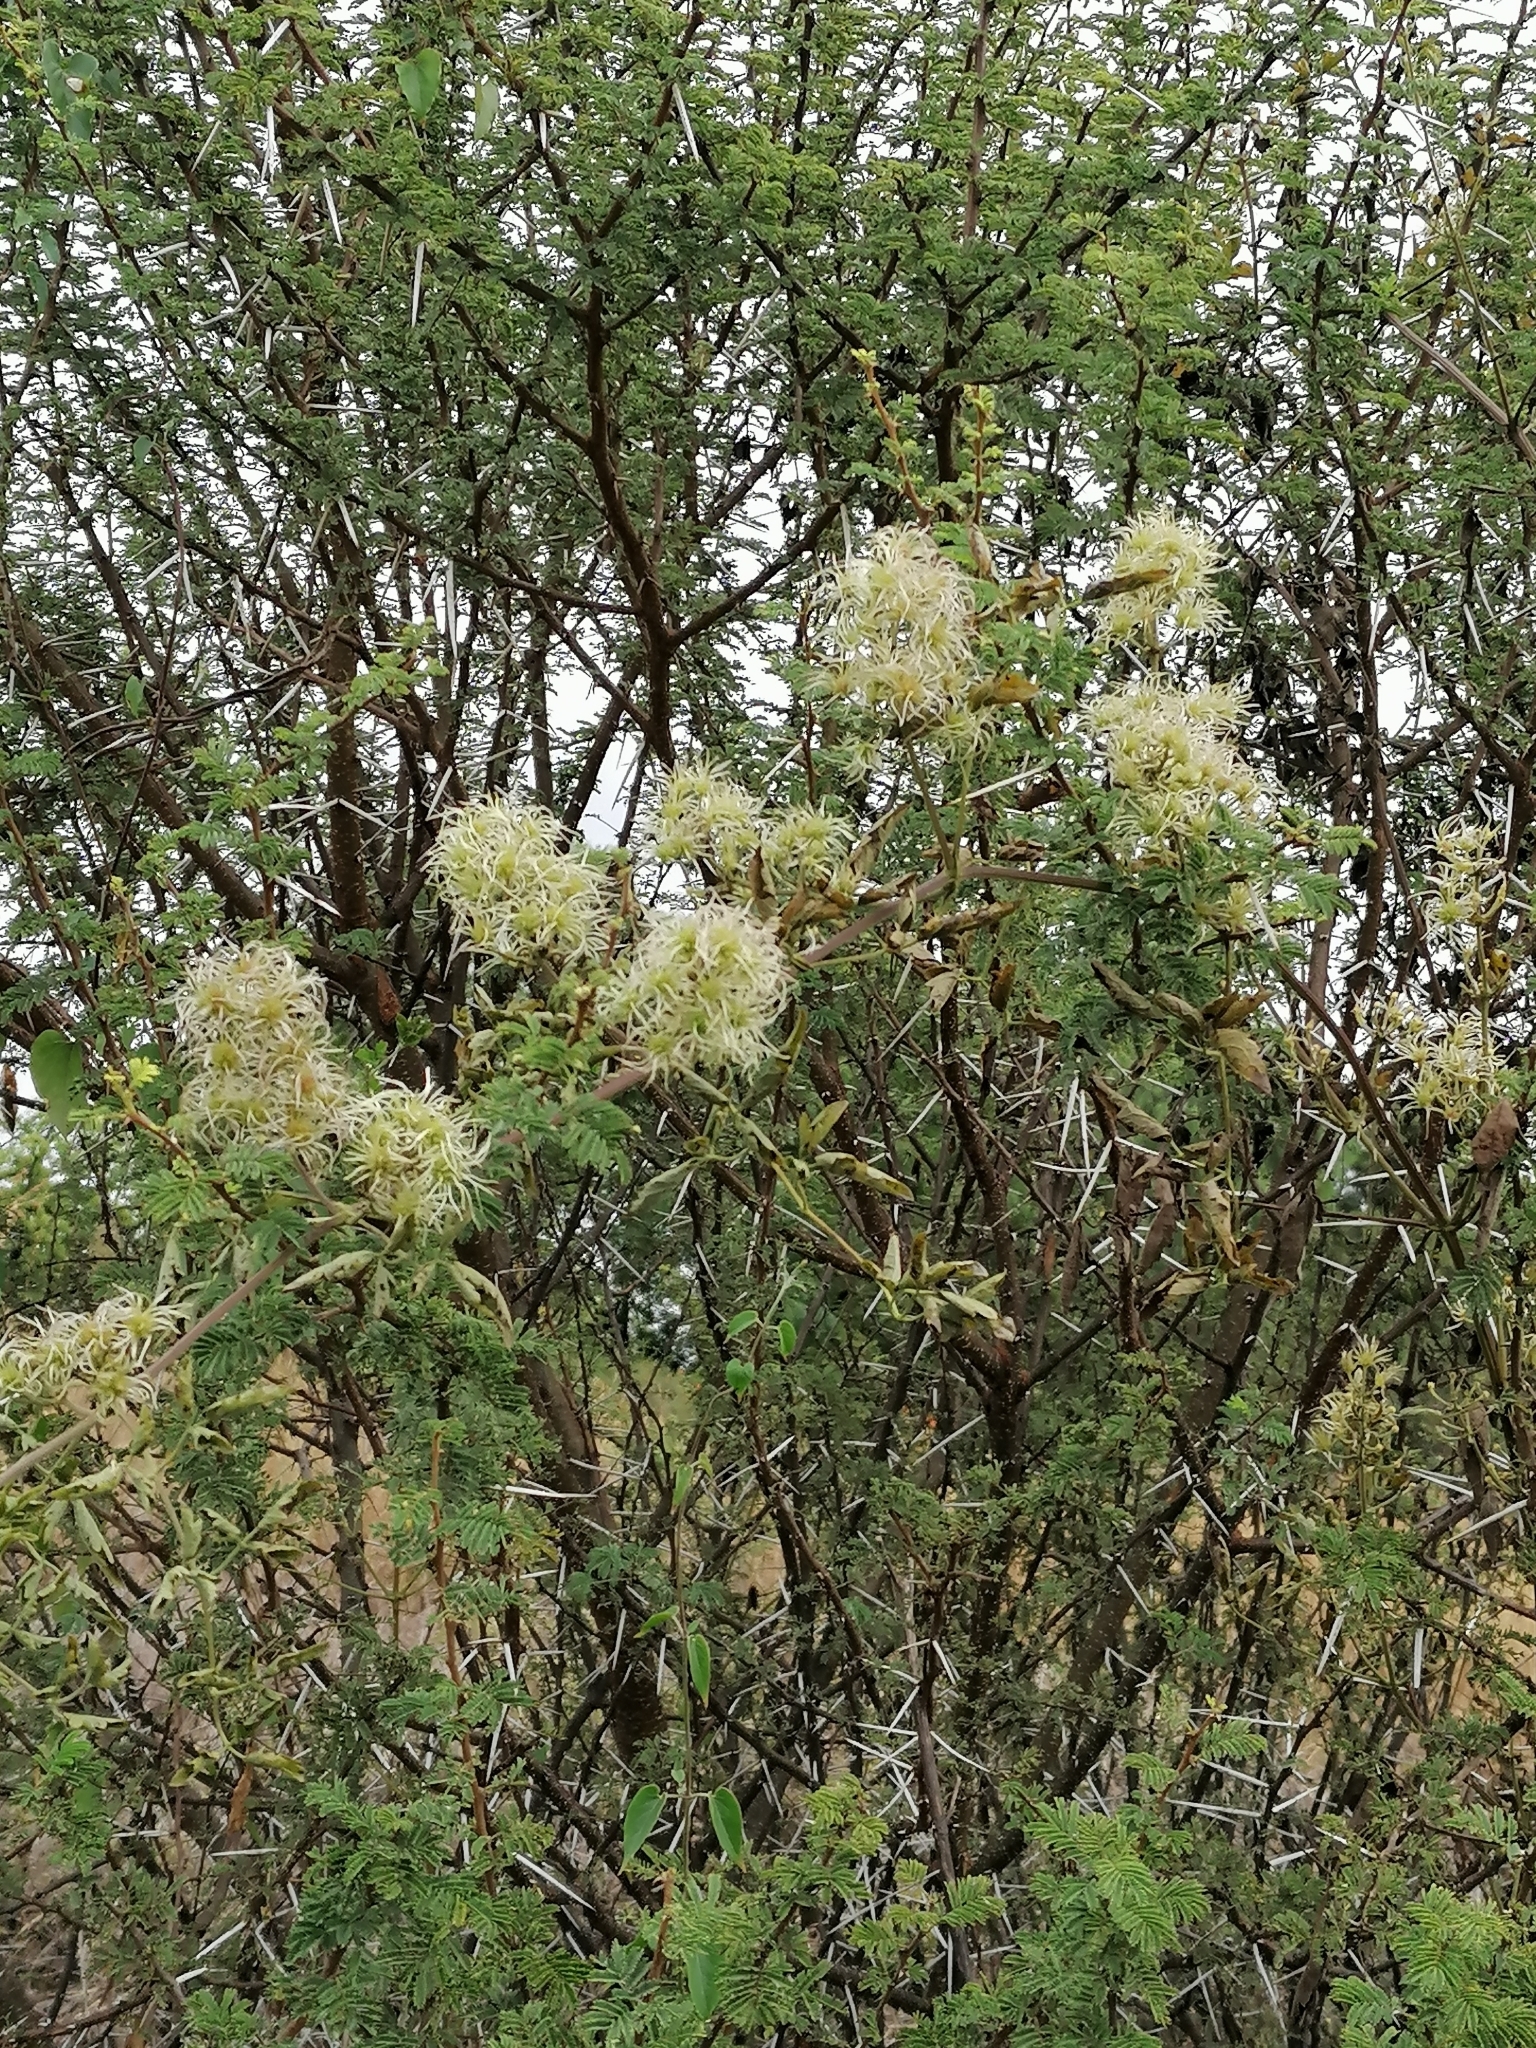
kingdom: Plantae
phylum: Tracheophyta
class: Magnoliopsida
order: Ranunculales
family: Ranunculaceae
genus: Clematis
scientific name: Clematis brachiata
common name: Traveler's-joy
